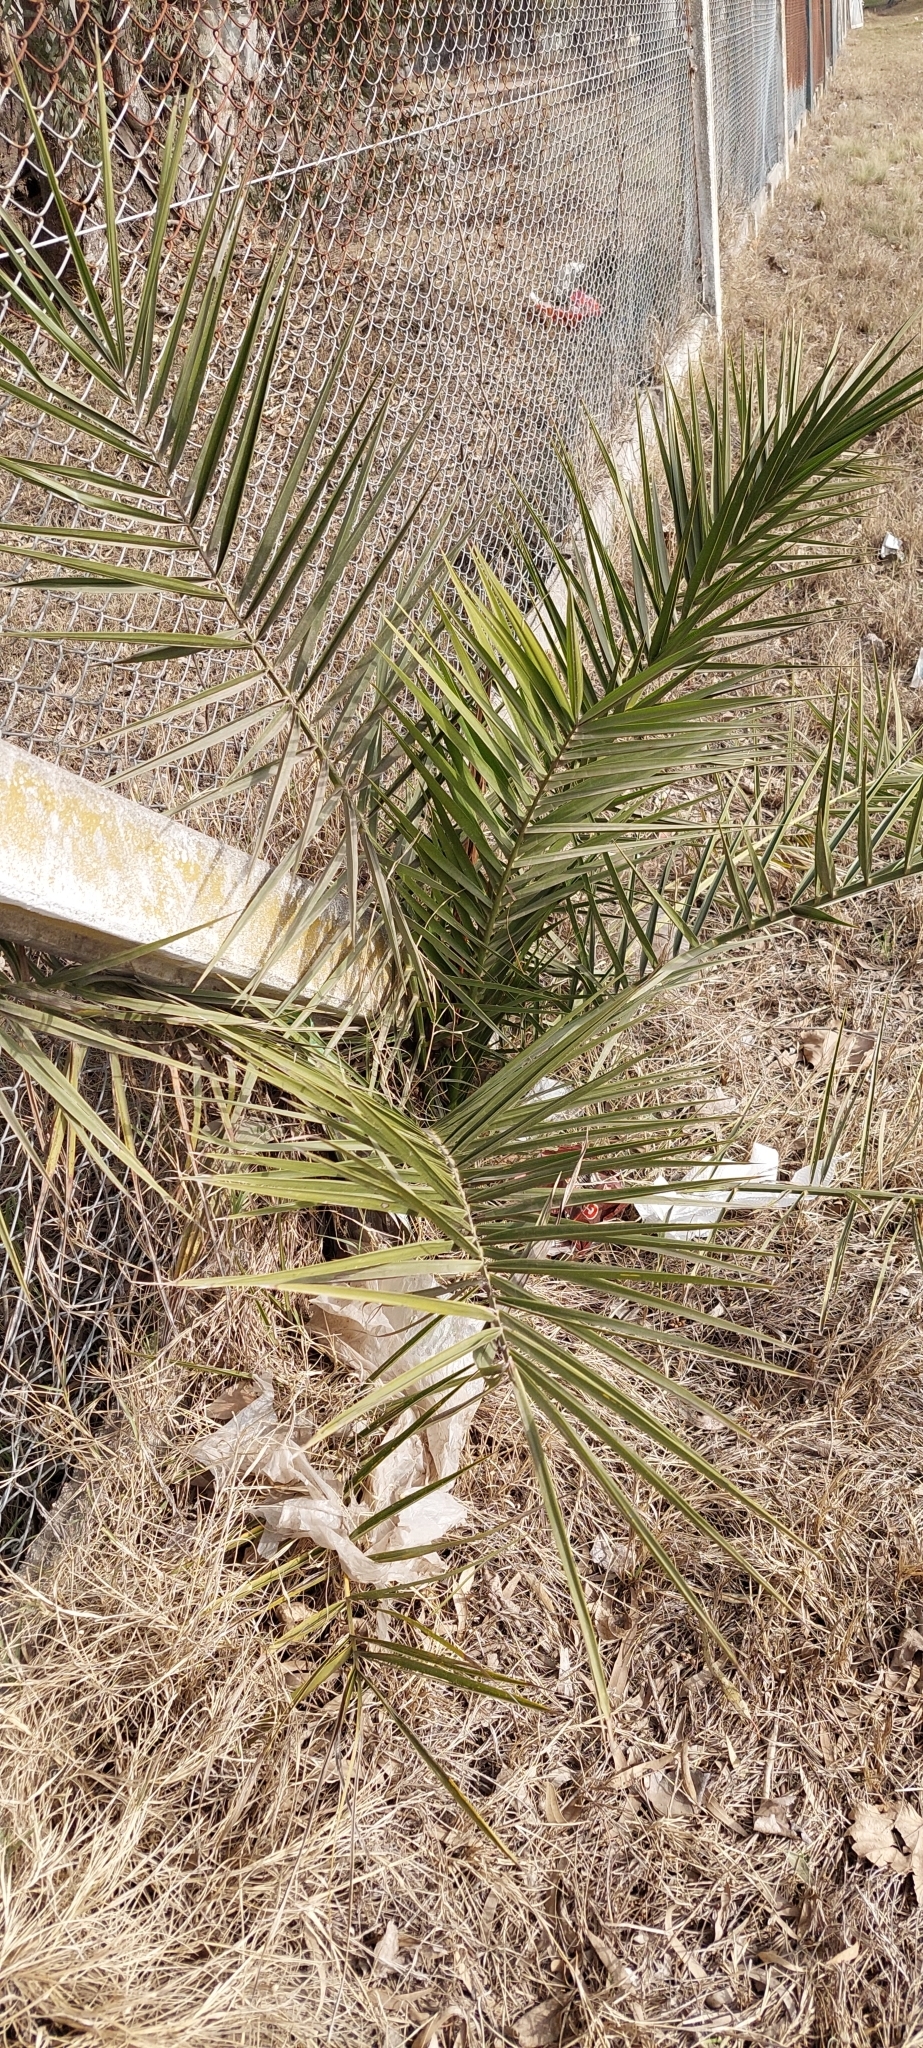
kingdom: Plantae
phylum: Tracheophyta
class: Liliopsida
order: Arecales
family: Arecaceae
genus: Phoenix
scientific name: Phoenix canariensis
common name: Canary island date palm
